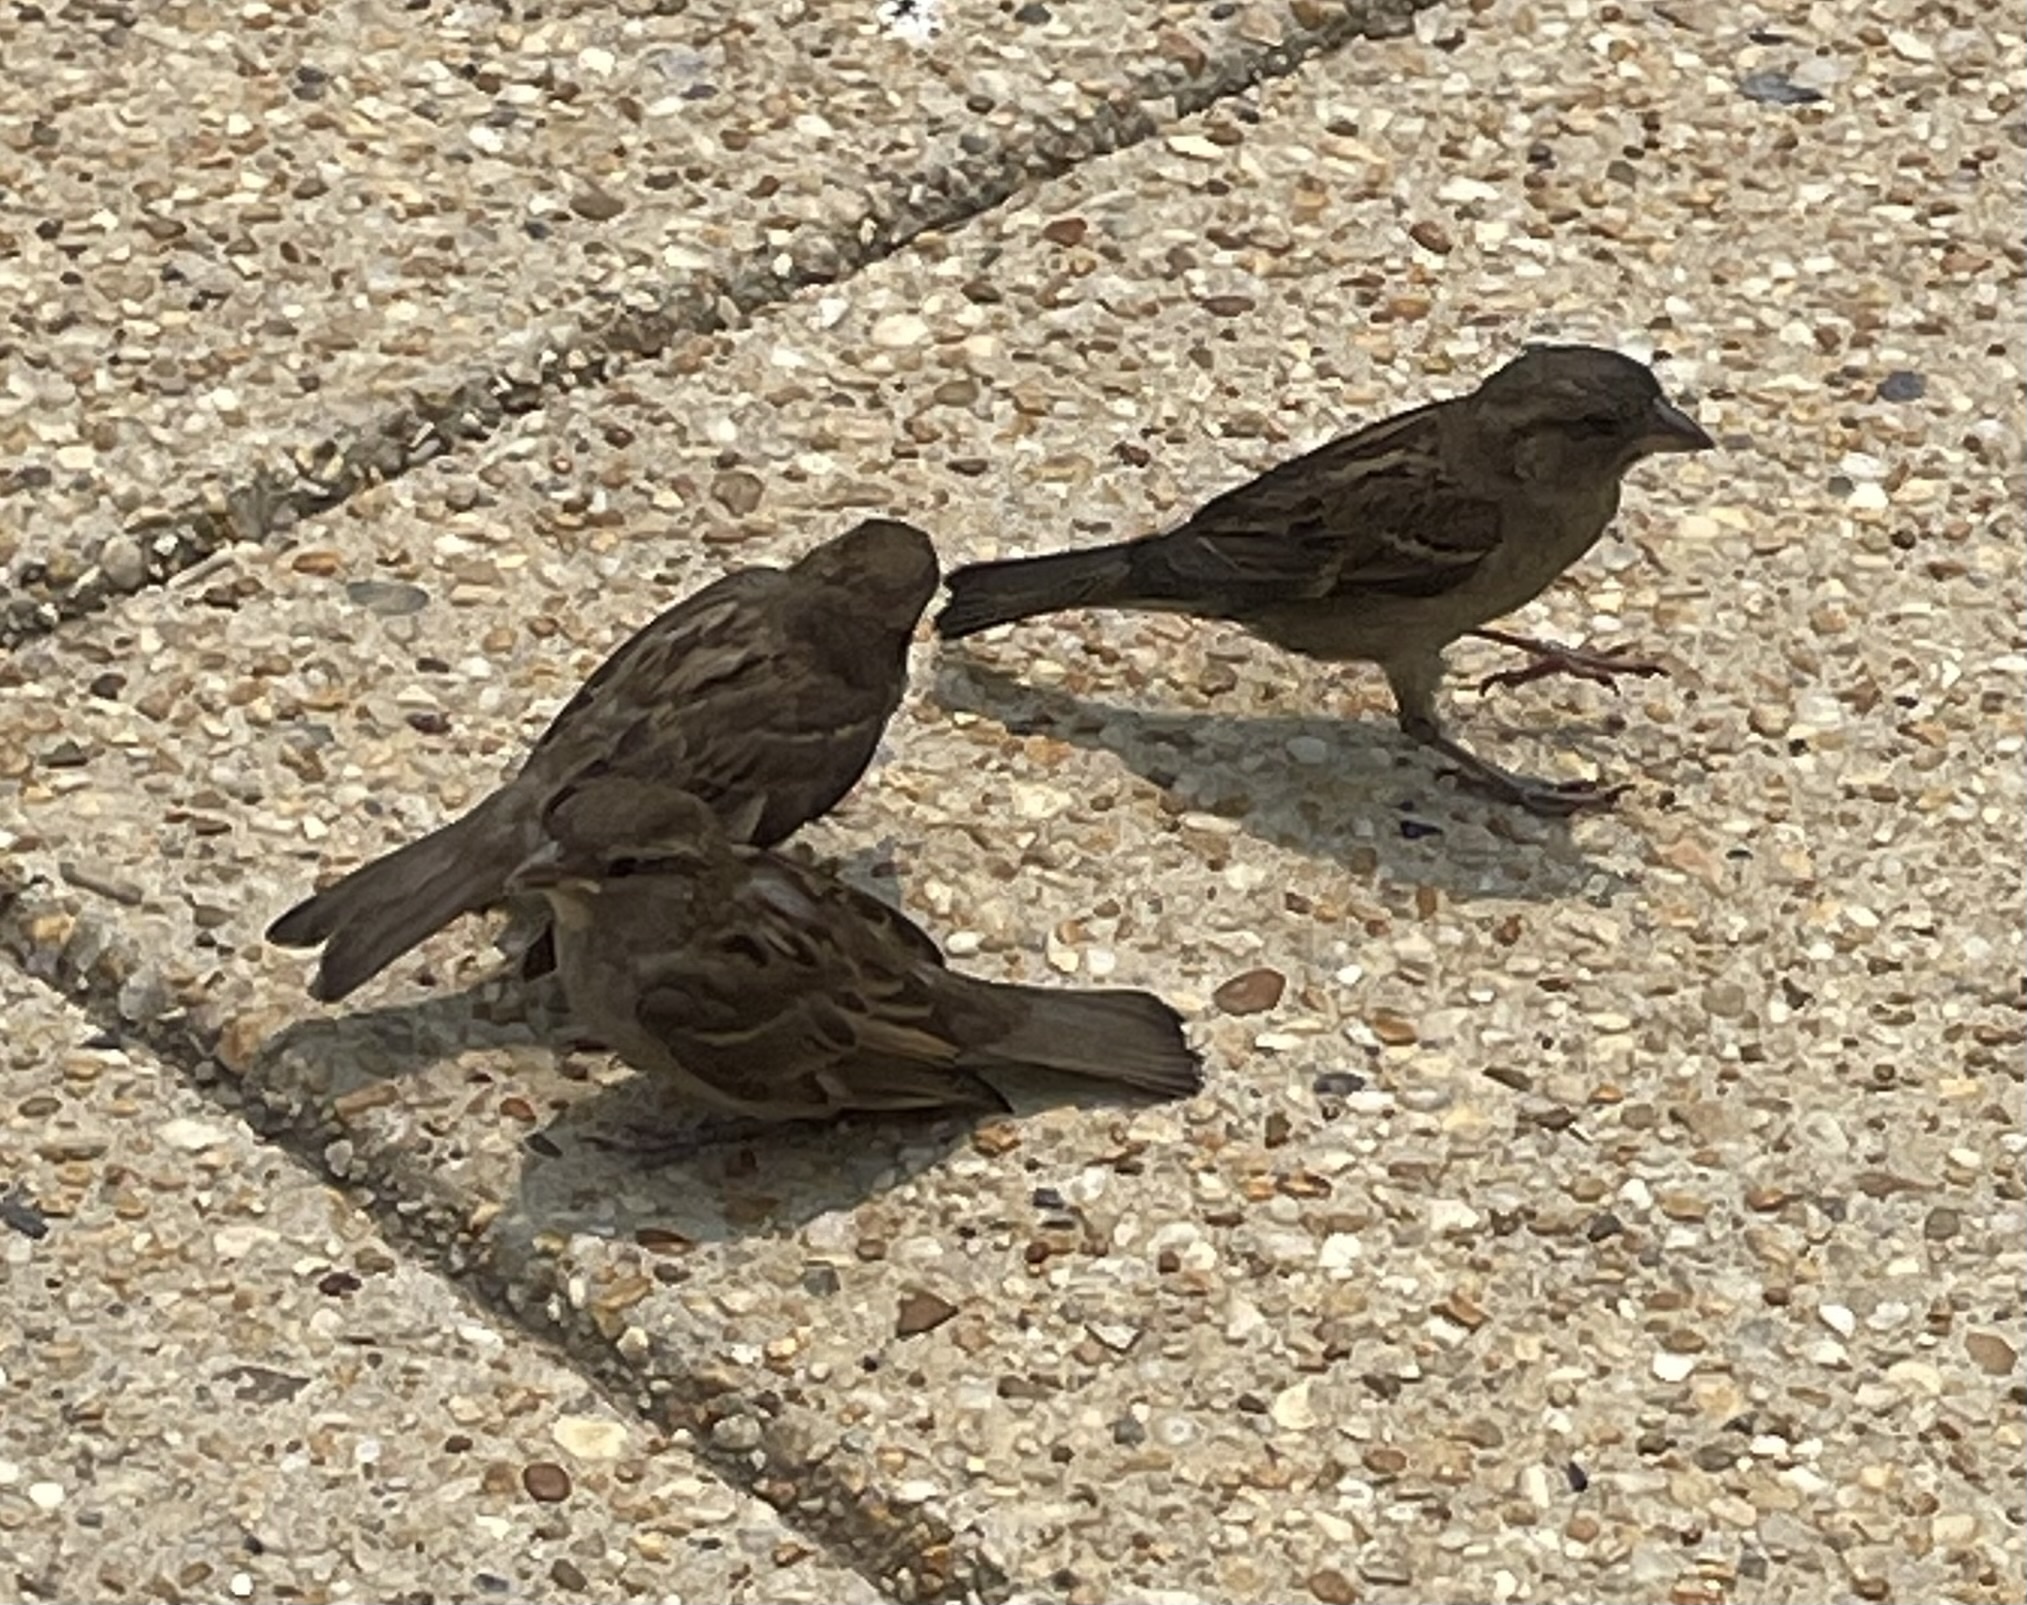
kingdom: Animalia
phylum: Chordata
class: Aves
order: Passeriformes
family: Passeridae
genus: Passer
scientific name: Passer domesticus
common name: House sparrow
